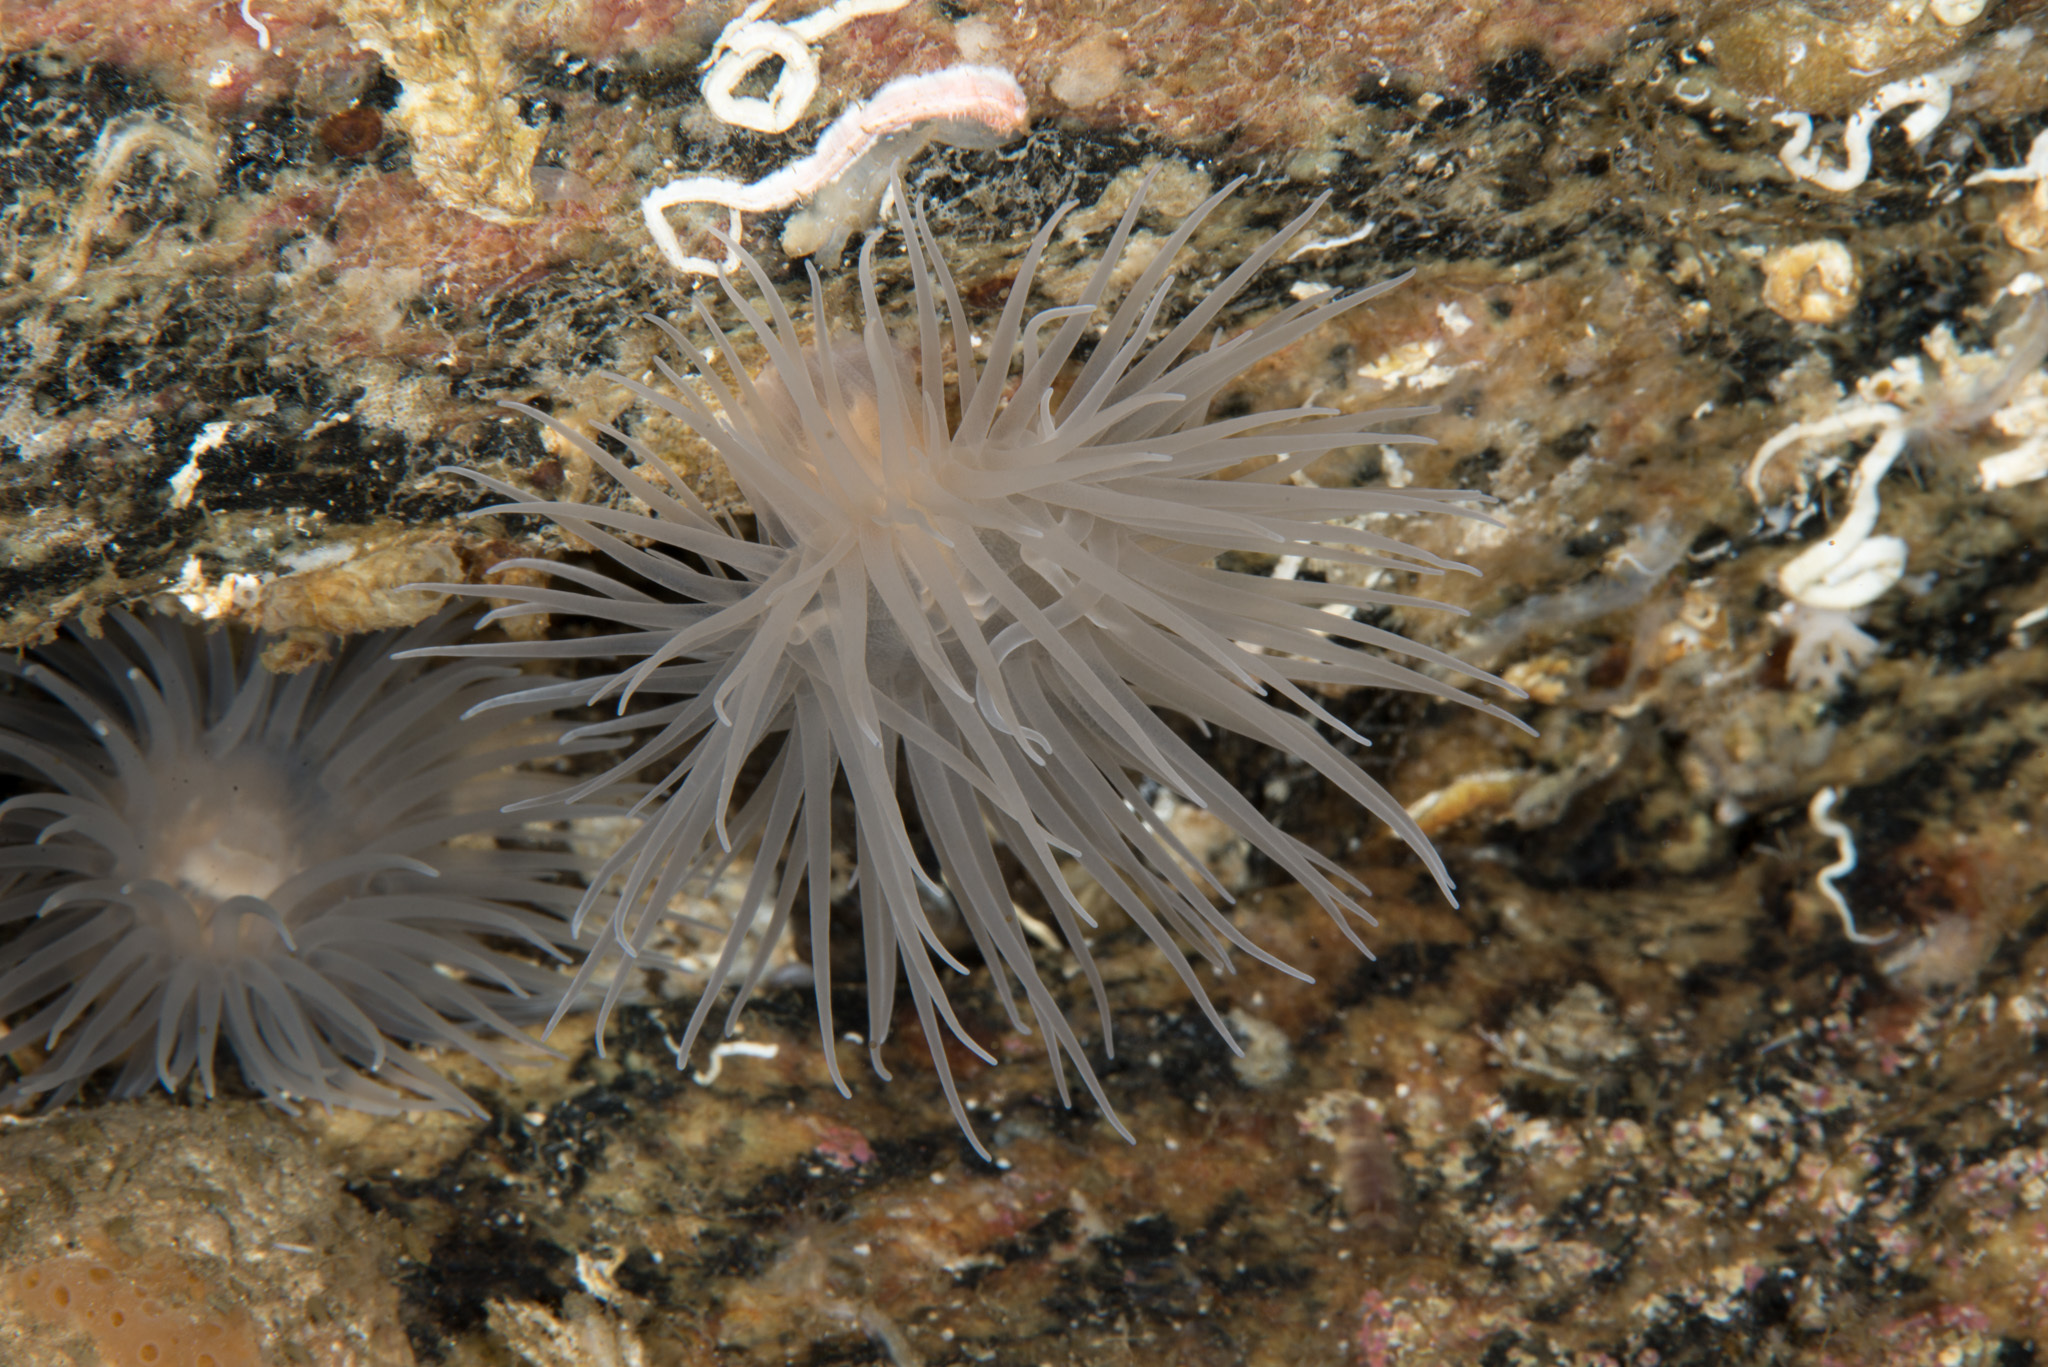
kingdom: Animalia
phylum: Cnidaria
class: Anthozoa
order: Actiniaria
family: Gonactiniidae
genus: Protanthea
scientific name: Protanthea simplex
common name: Sealoch anemone
